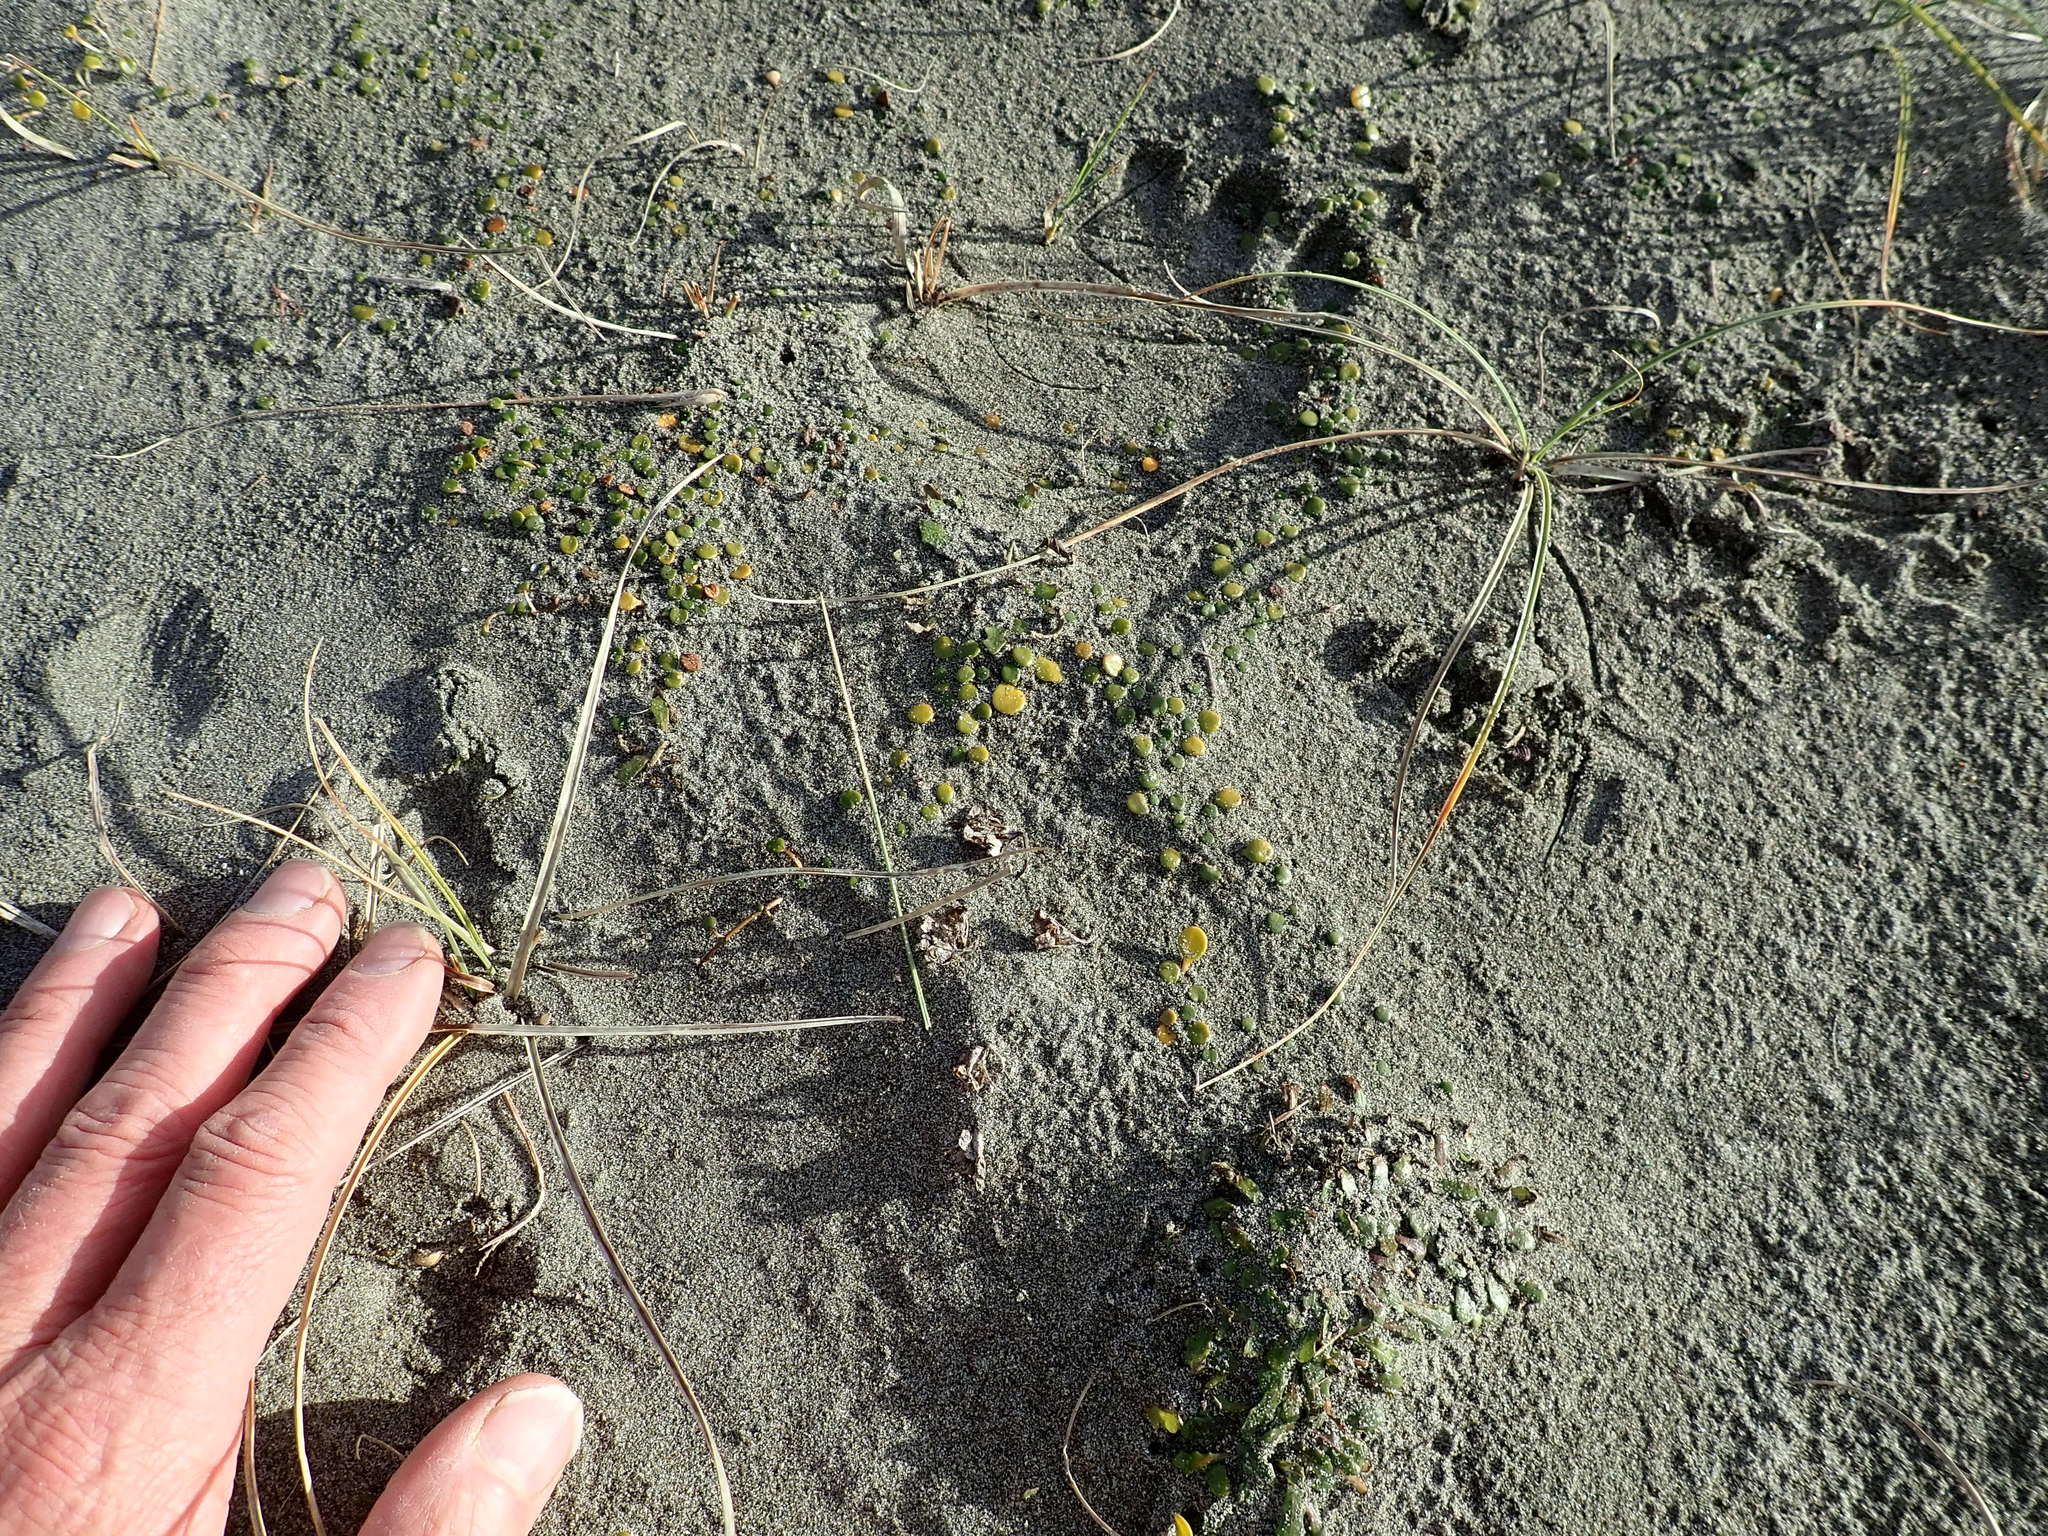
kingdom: Plantae
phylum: Tracheophyta
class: Magnoliopsida
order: Asterales
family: Goodeniaceae
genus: Goodenia
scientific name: Goodenia heenanii
